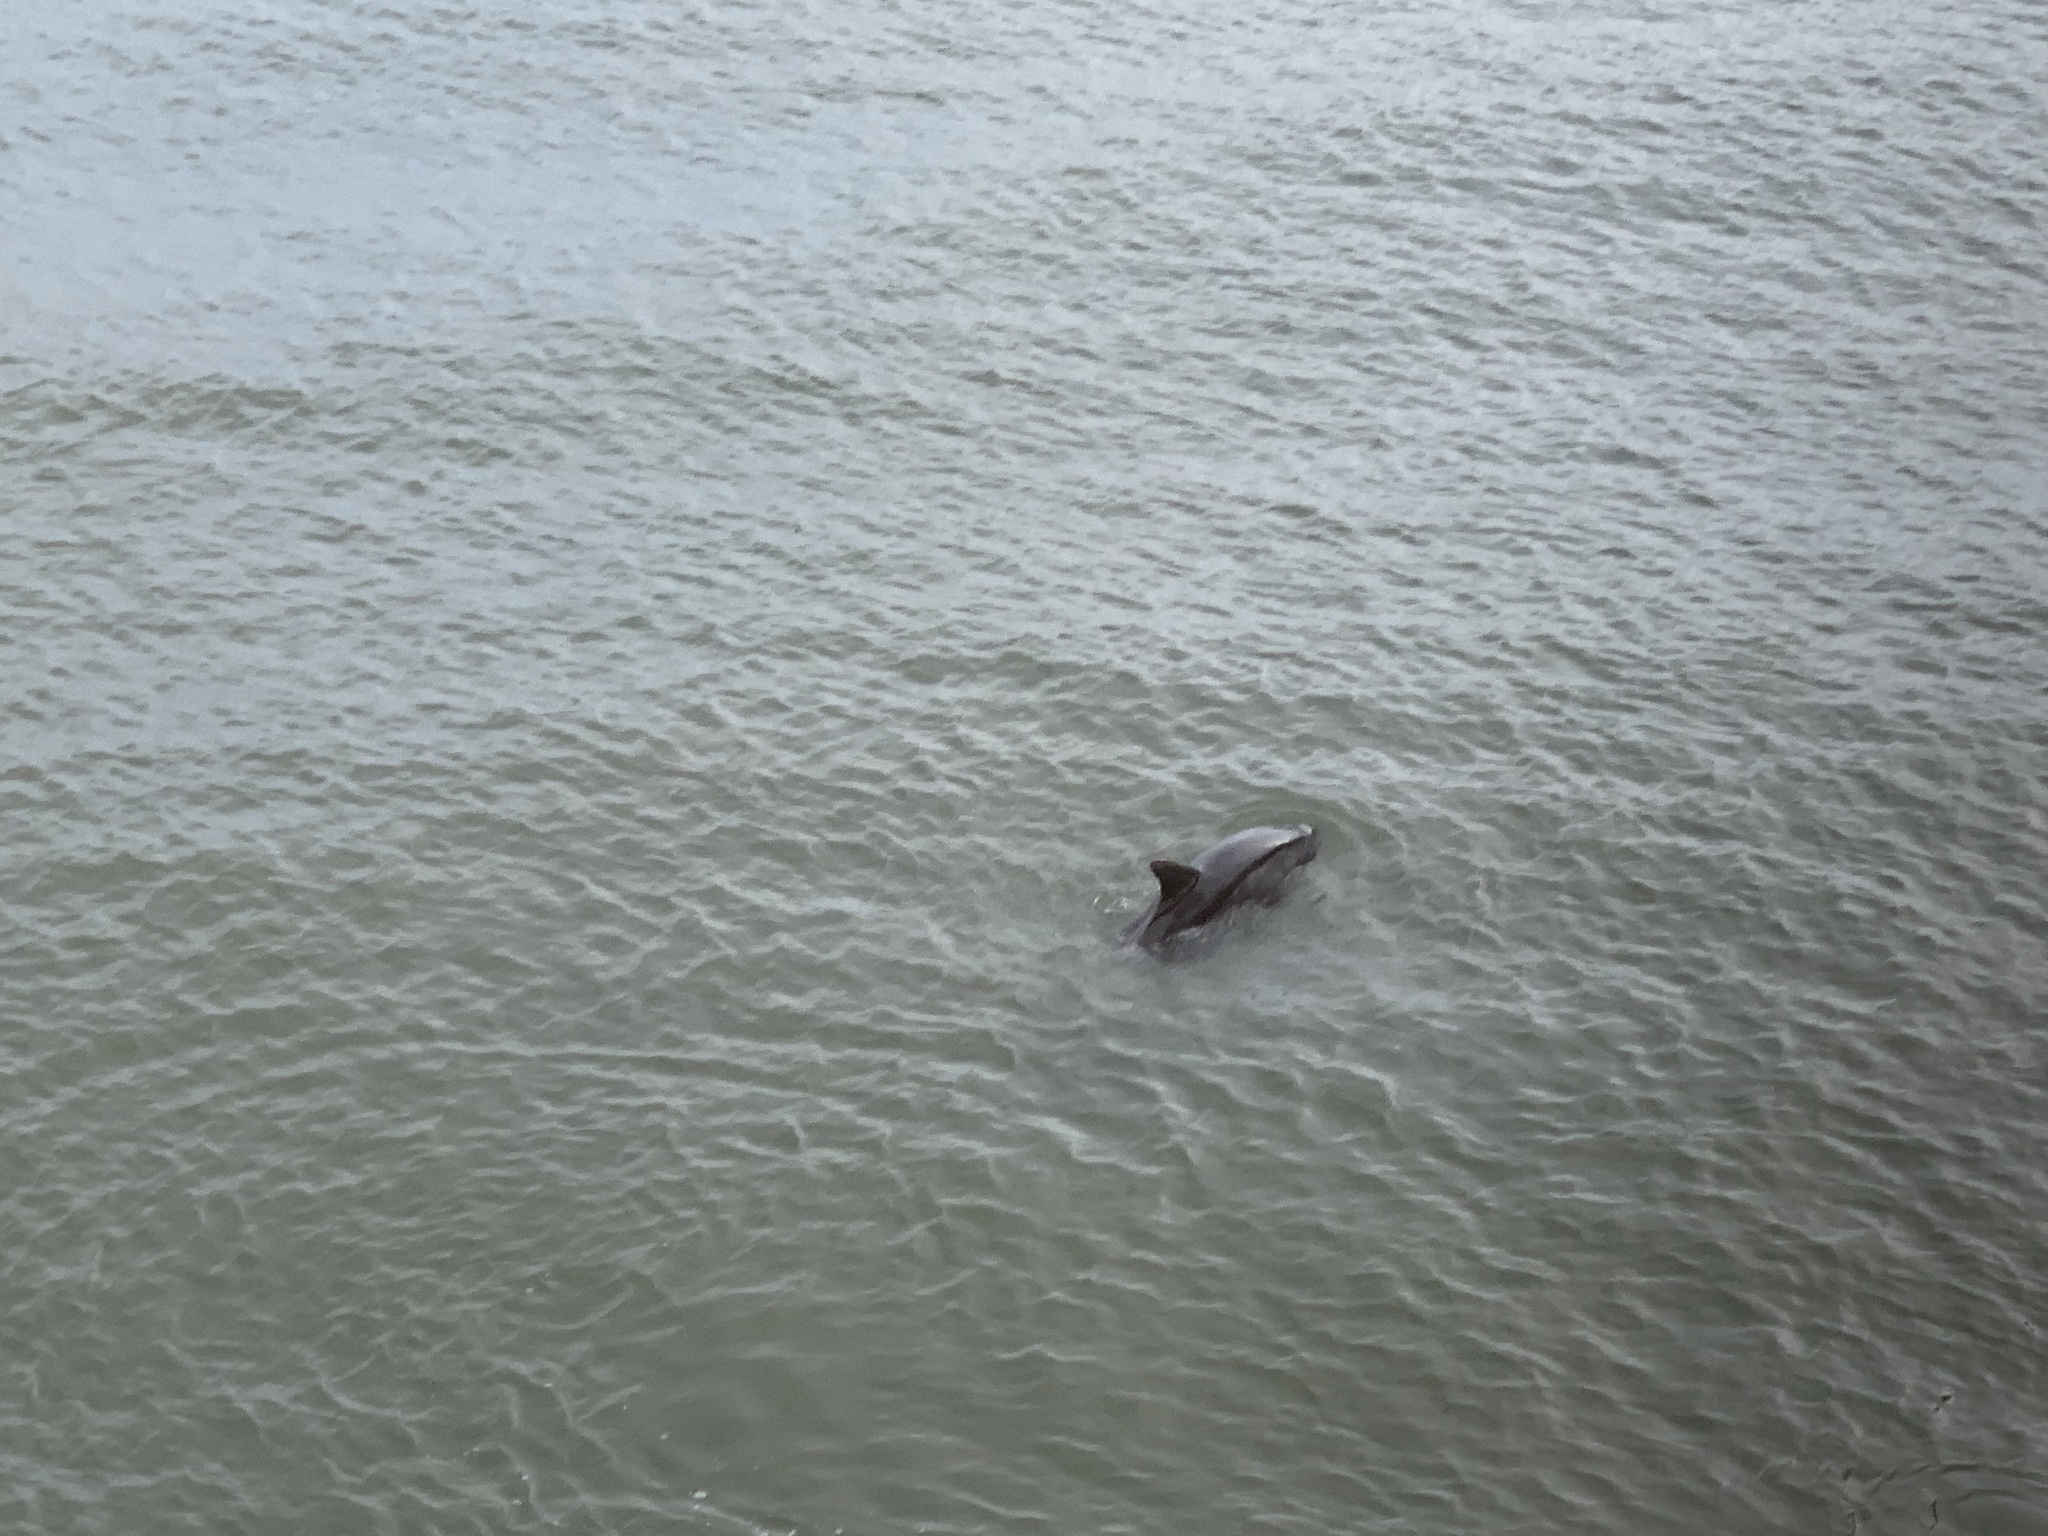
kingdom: Animalia
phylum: Chordata
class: Mammalia
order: Cetacea
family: Delphinidae
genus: Tursiops
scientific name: Tursiops truncatus
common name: Bottlenose dolphin
